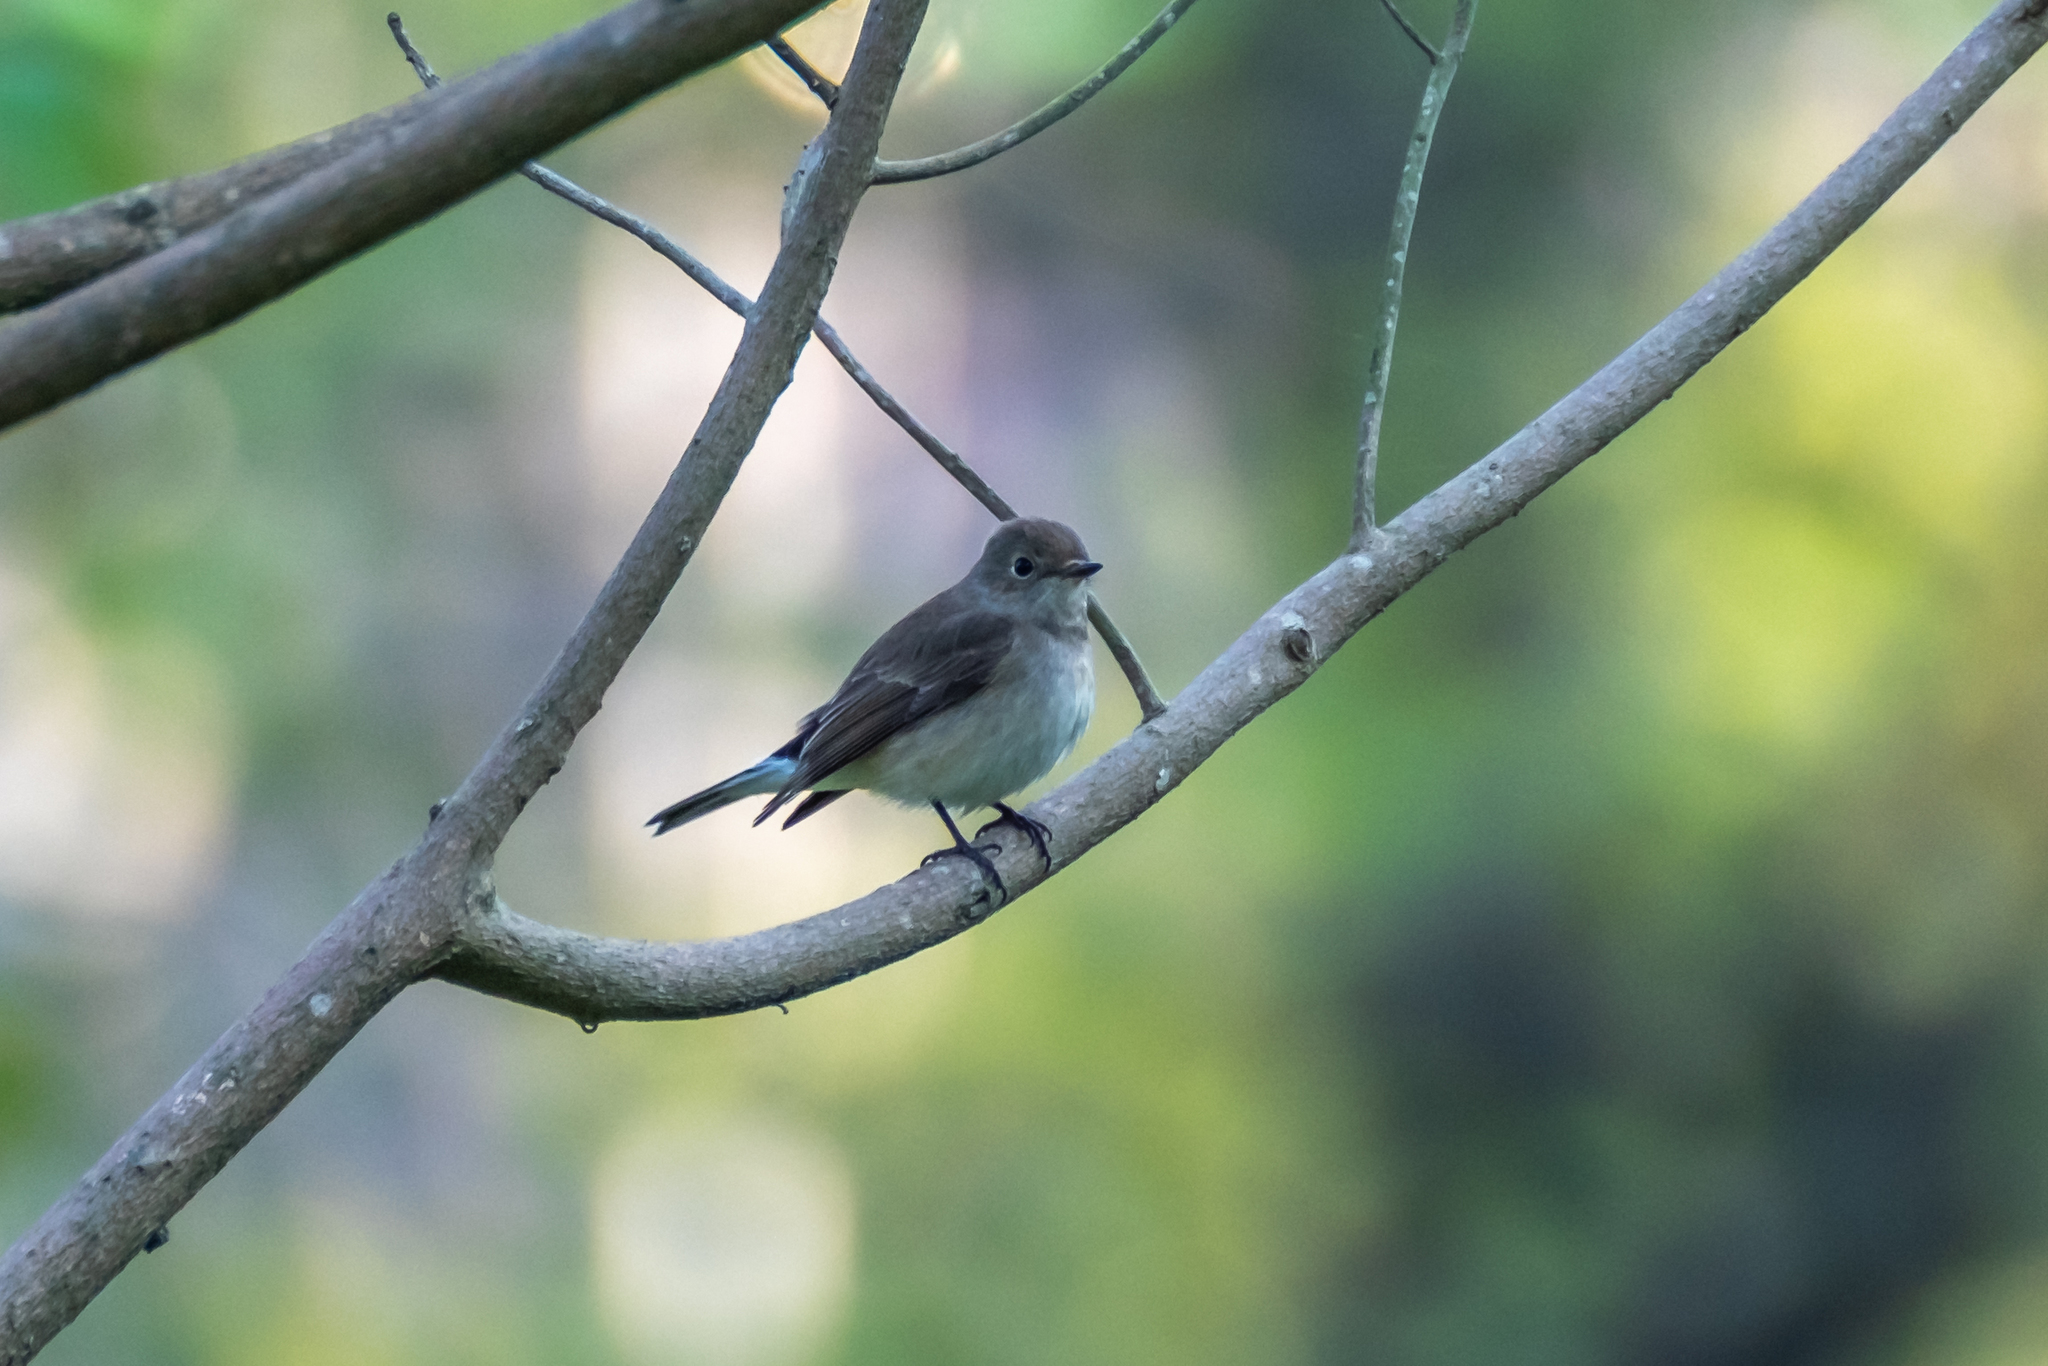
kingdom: Animalia
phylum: Chordata
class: Aves
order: Passeriformes
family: Muscicapidae
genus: Ficedula
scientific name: Ficedula albicilla
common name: Taiga flycatcher
